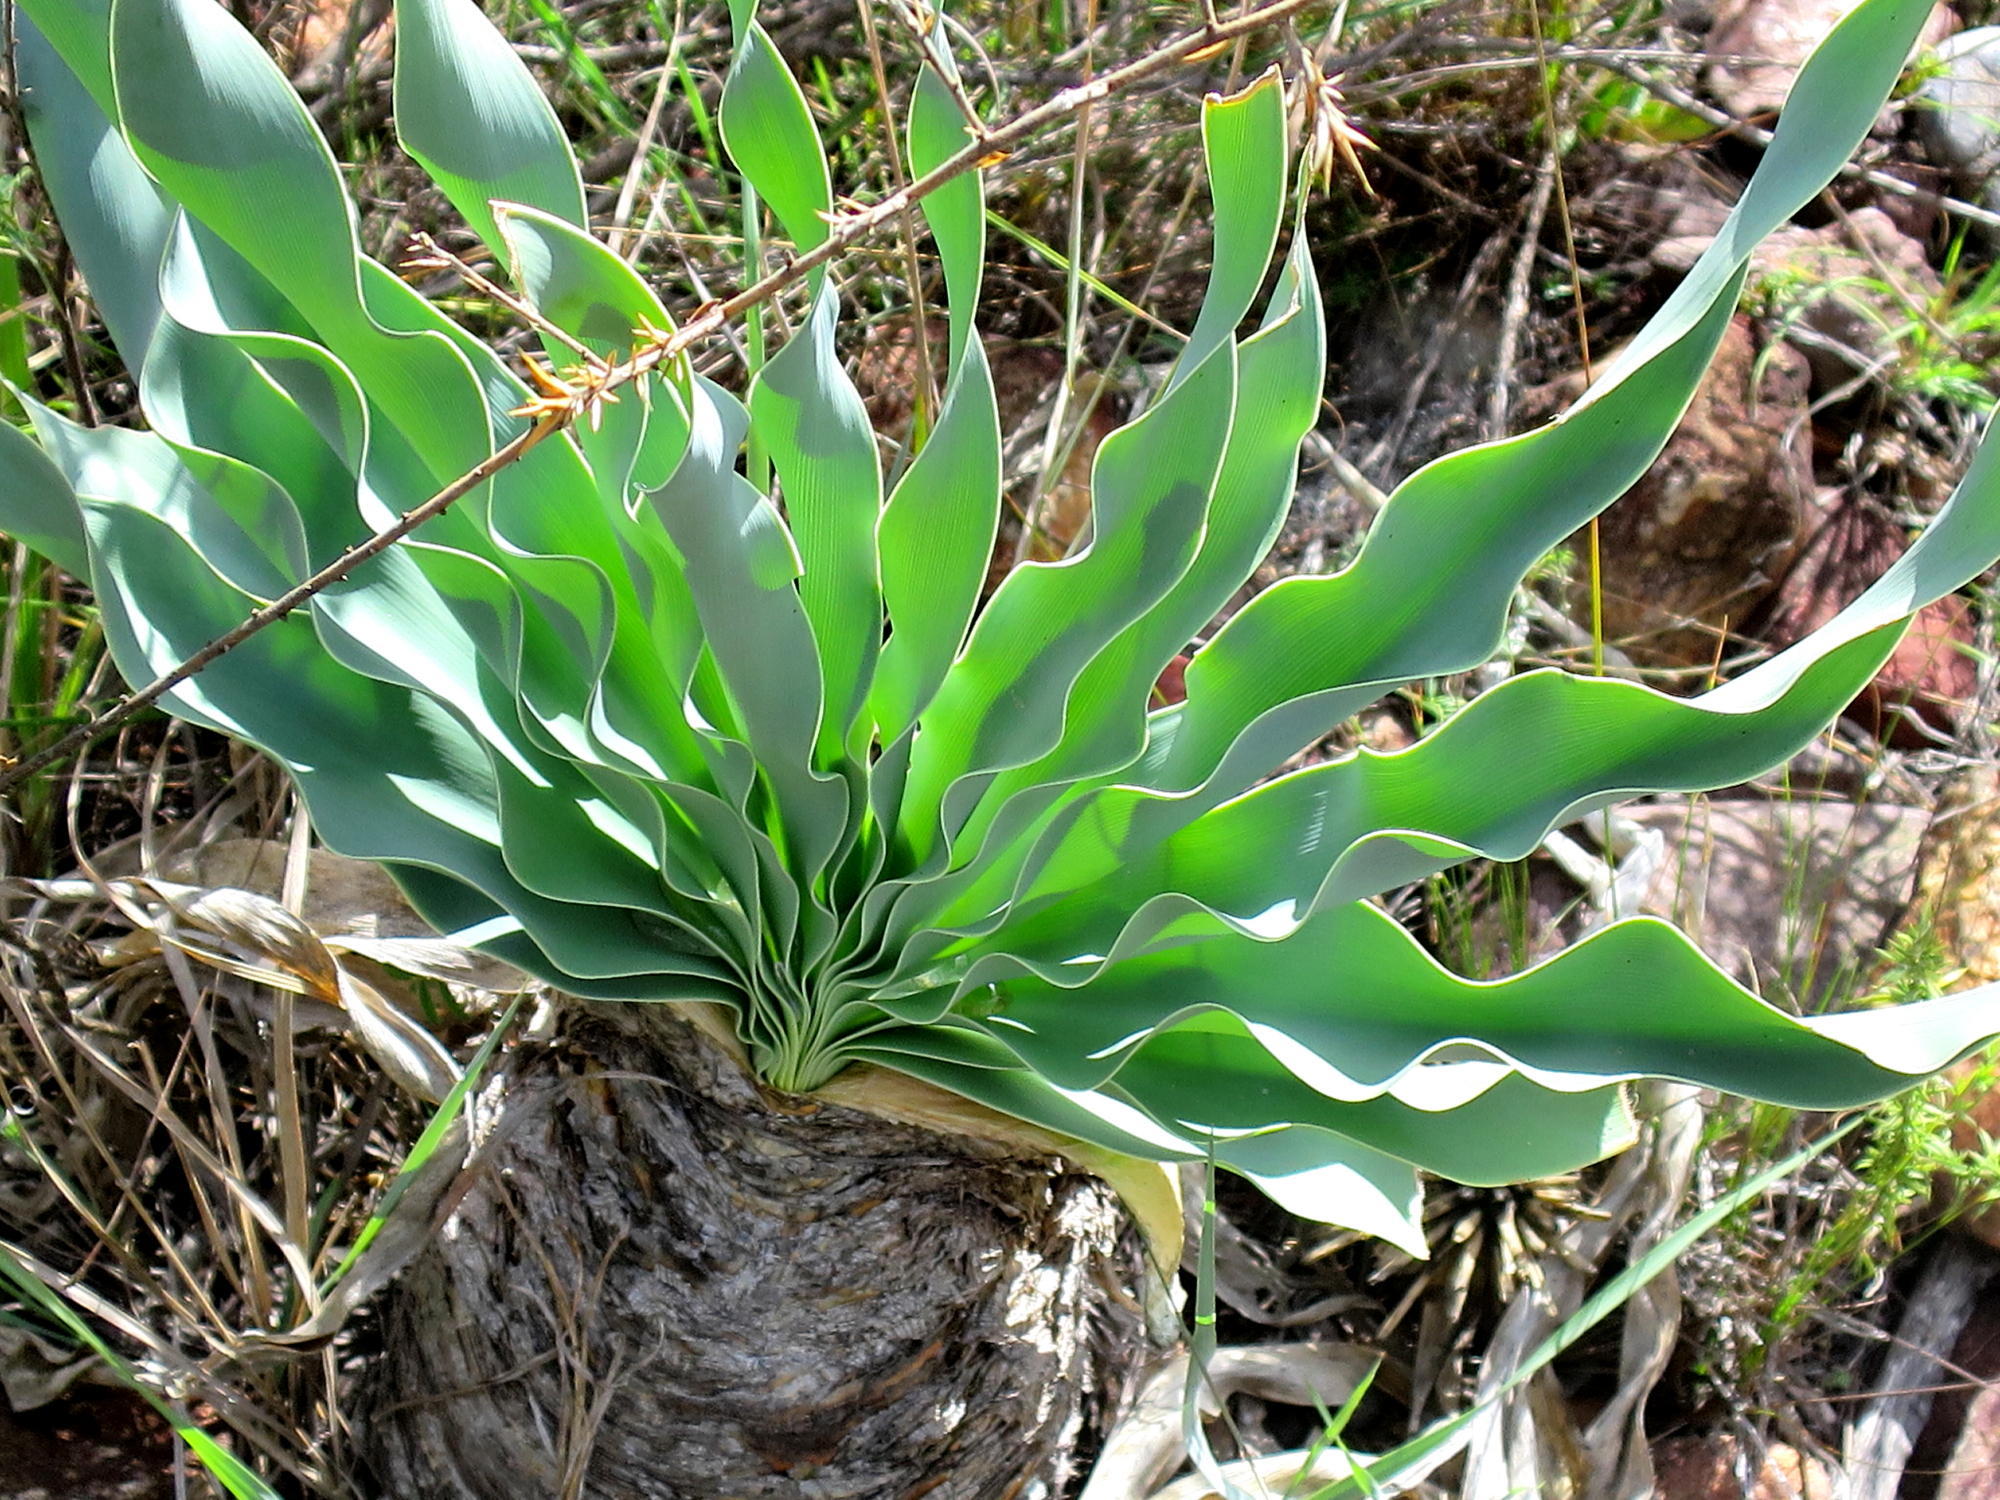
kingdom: Plantae
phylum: Tracheophyta
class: Liliopsida
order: Asparagales
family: Amaryllidaceae
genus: Boophone
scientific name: Boophone disticha
